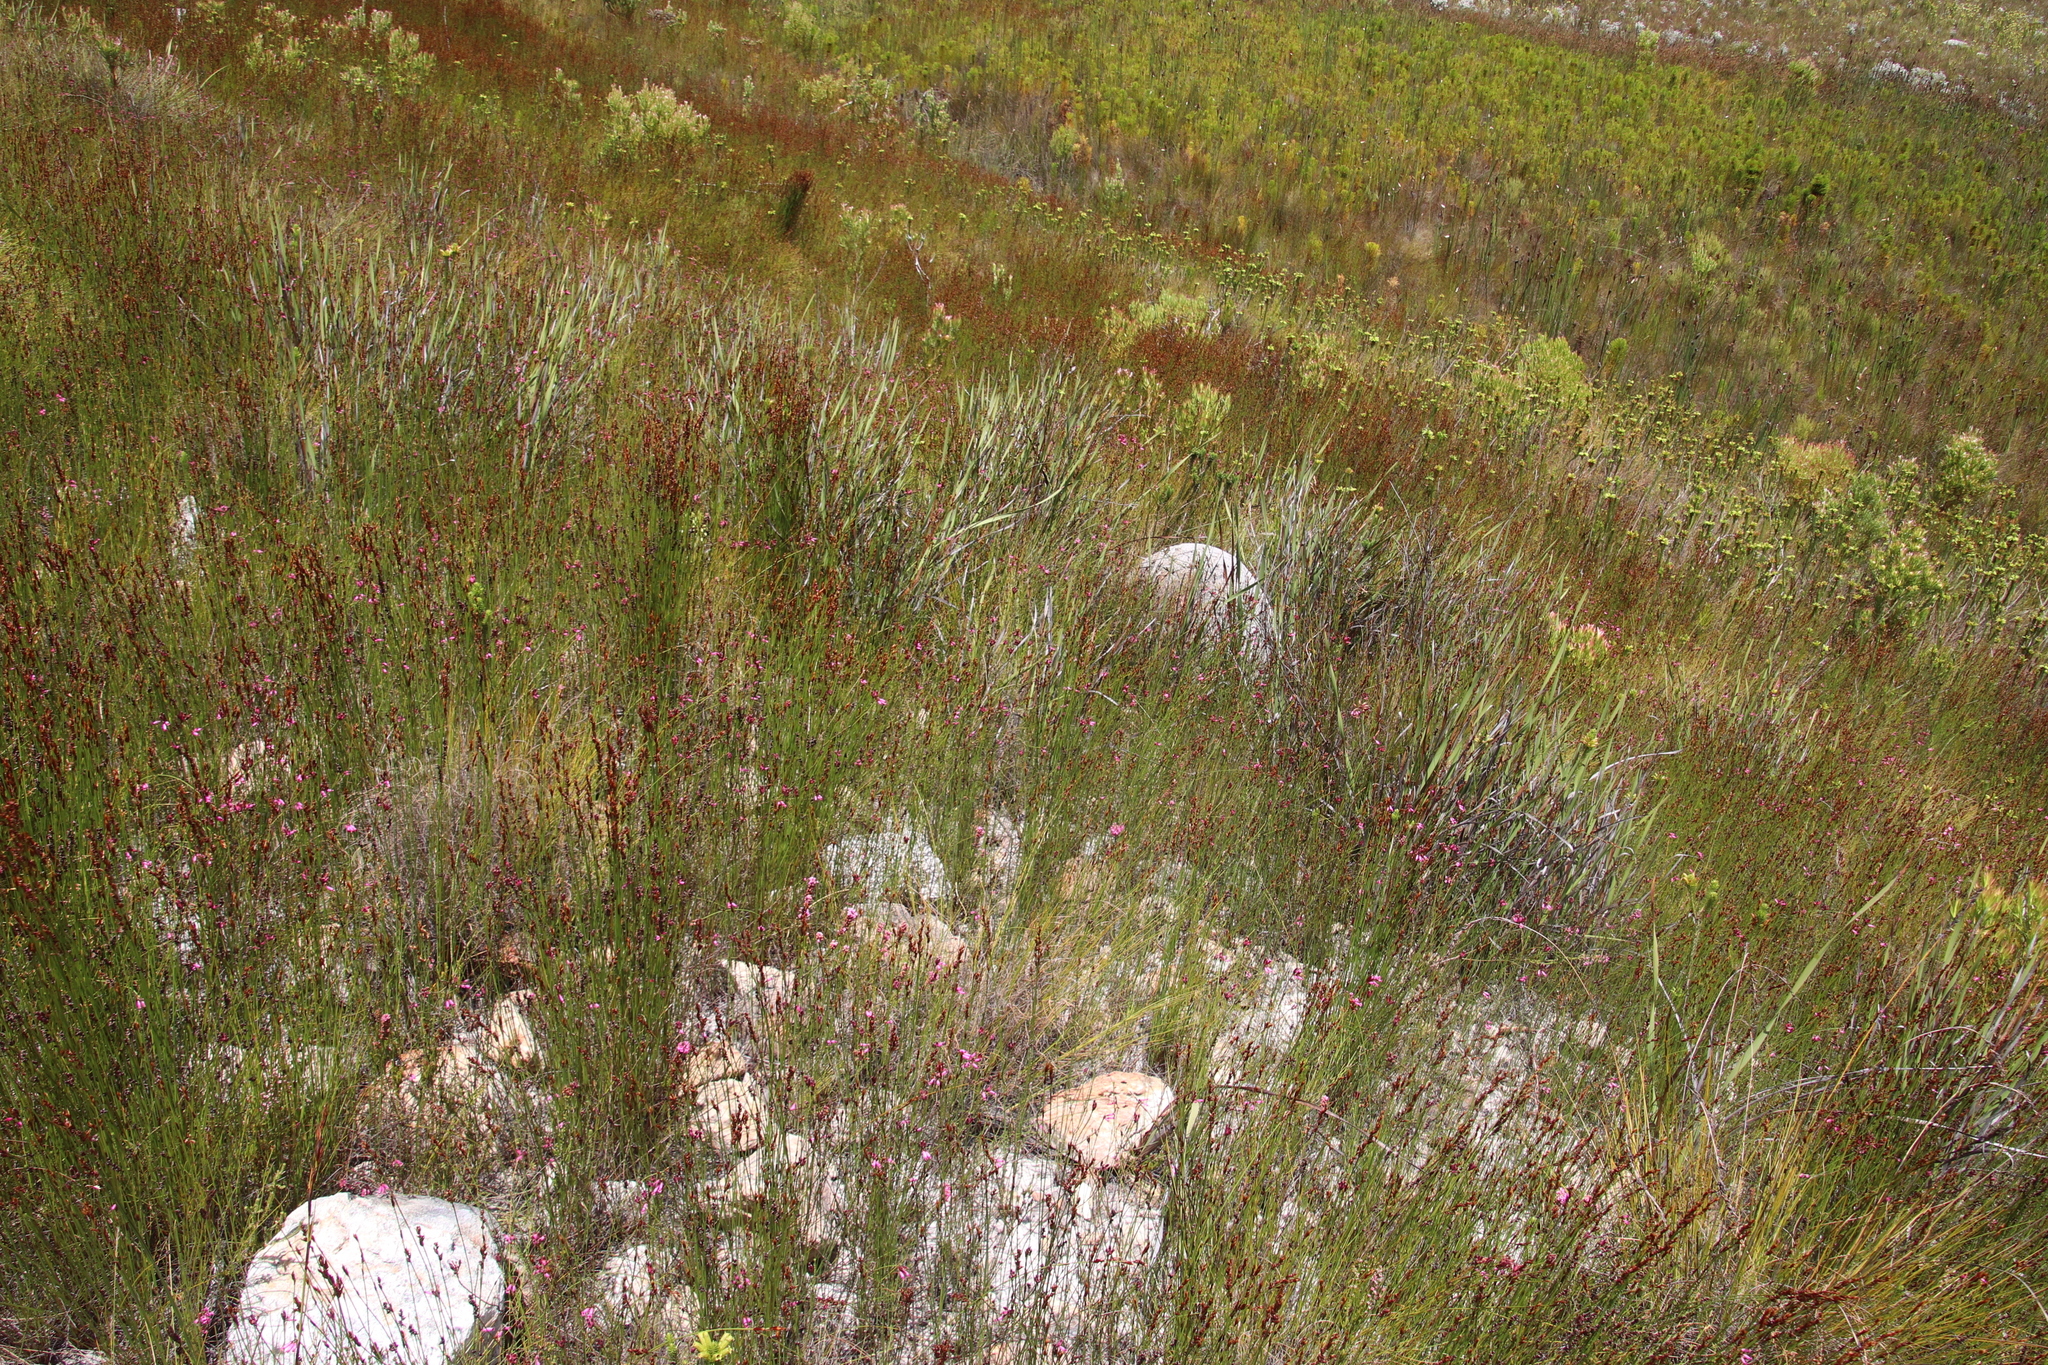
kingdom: Plantae
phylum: Tracheophyta
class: Magnoliopsida
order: Ericales
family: Ericaceae
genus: Erica
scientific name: Erica cristata
